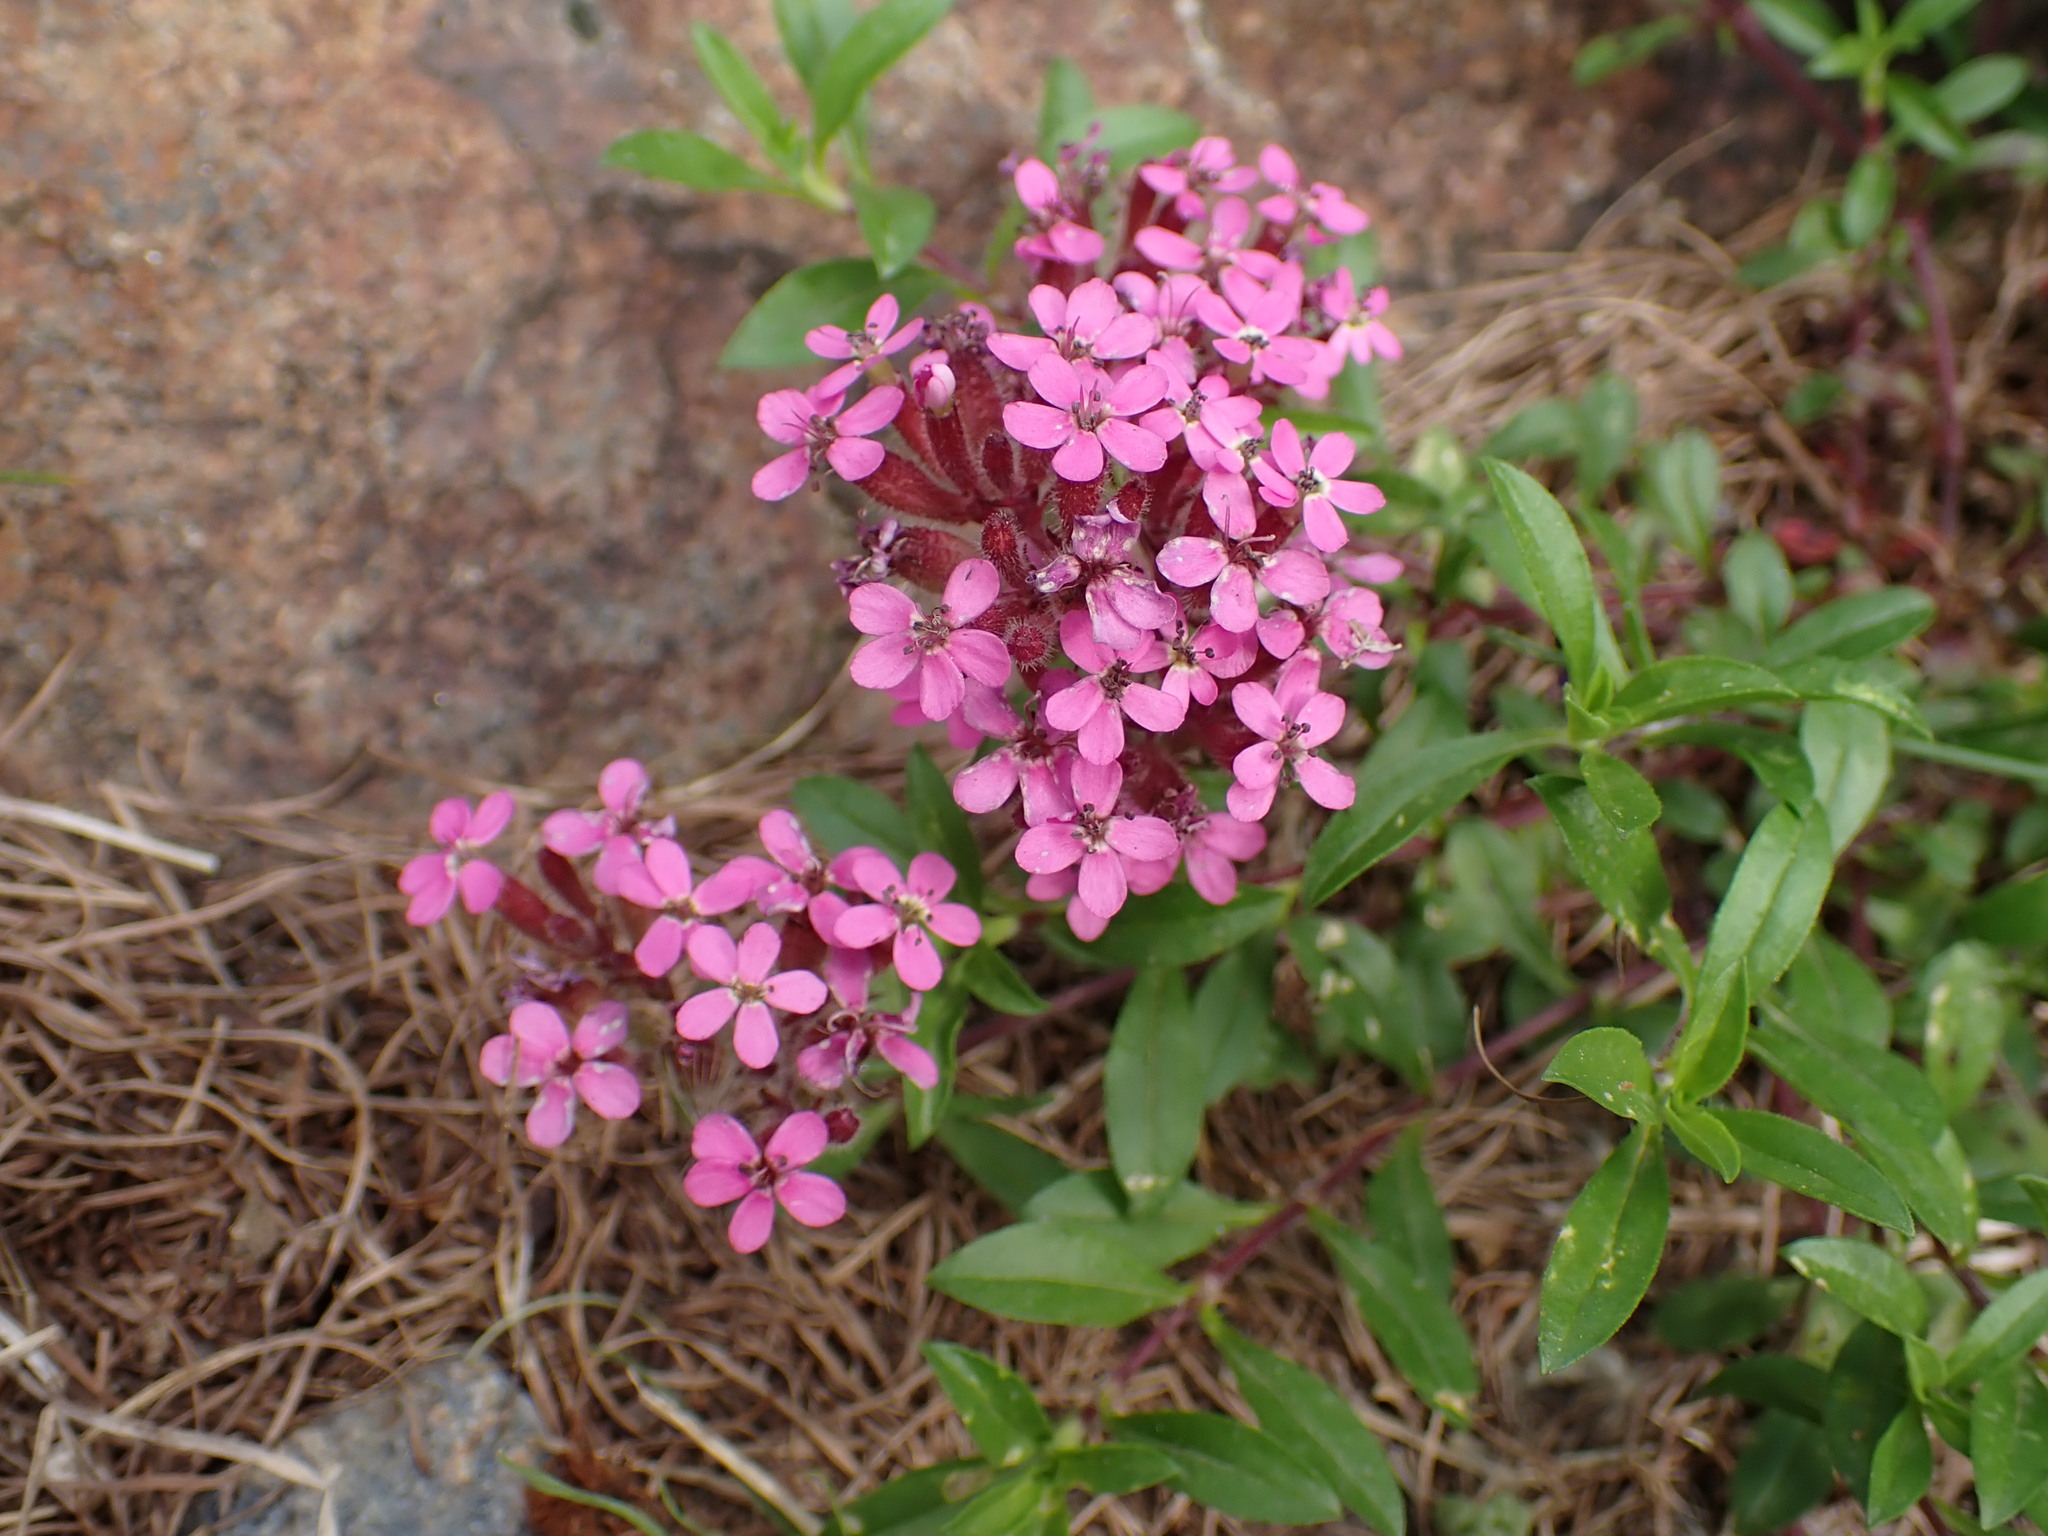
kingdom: Plantae
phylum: Tracheophyta
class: Magnoliopsida
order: Caryophyllales
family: Caryophyllaceae
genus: Saponaria
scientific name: Saponaria ocymoides
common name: Rock soapwort
